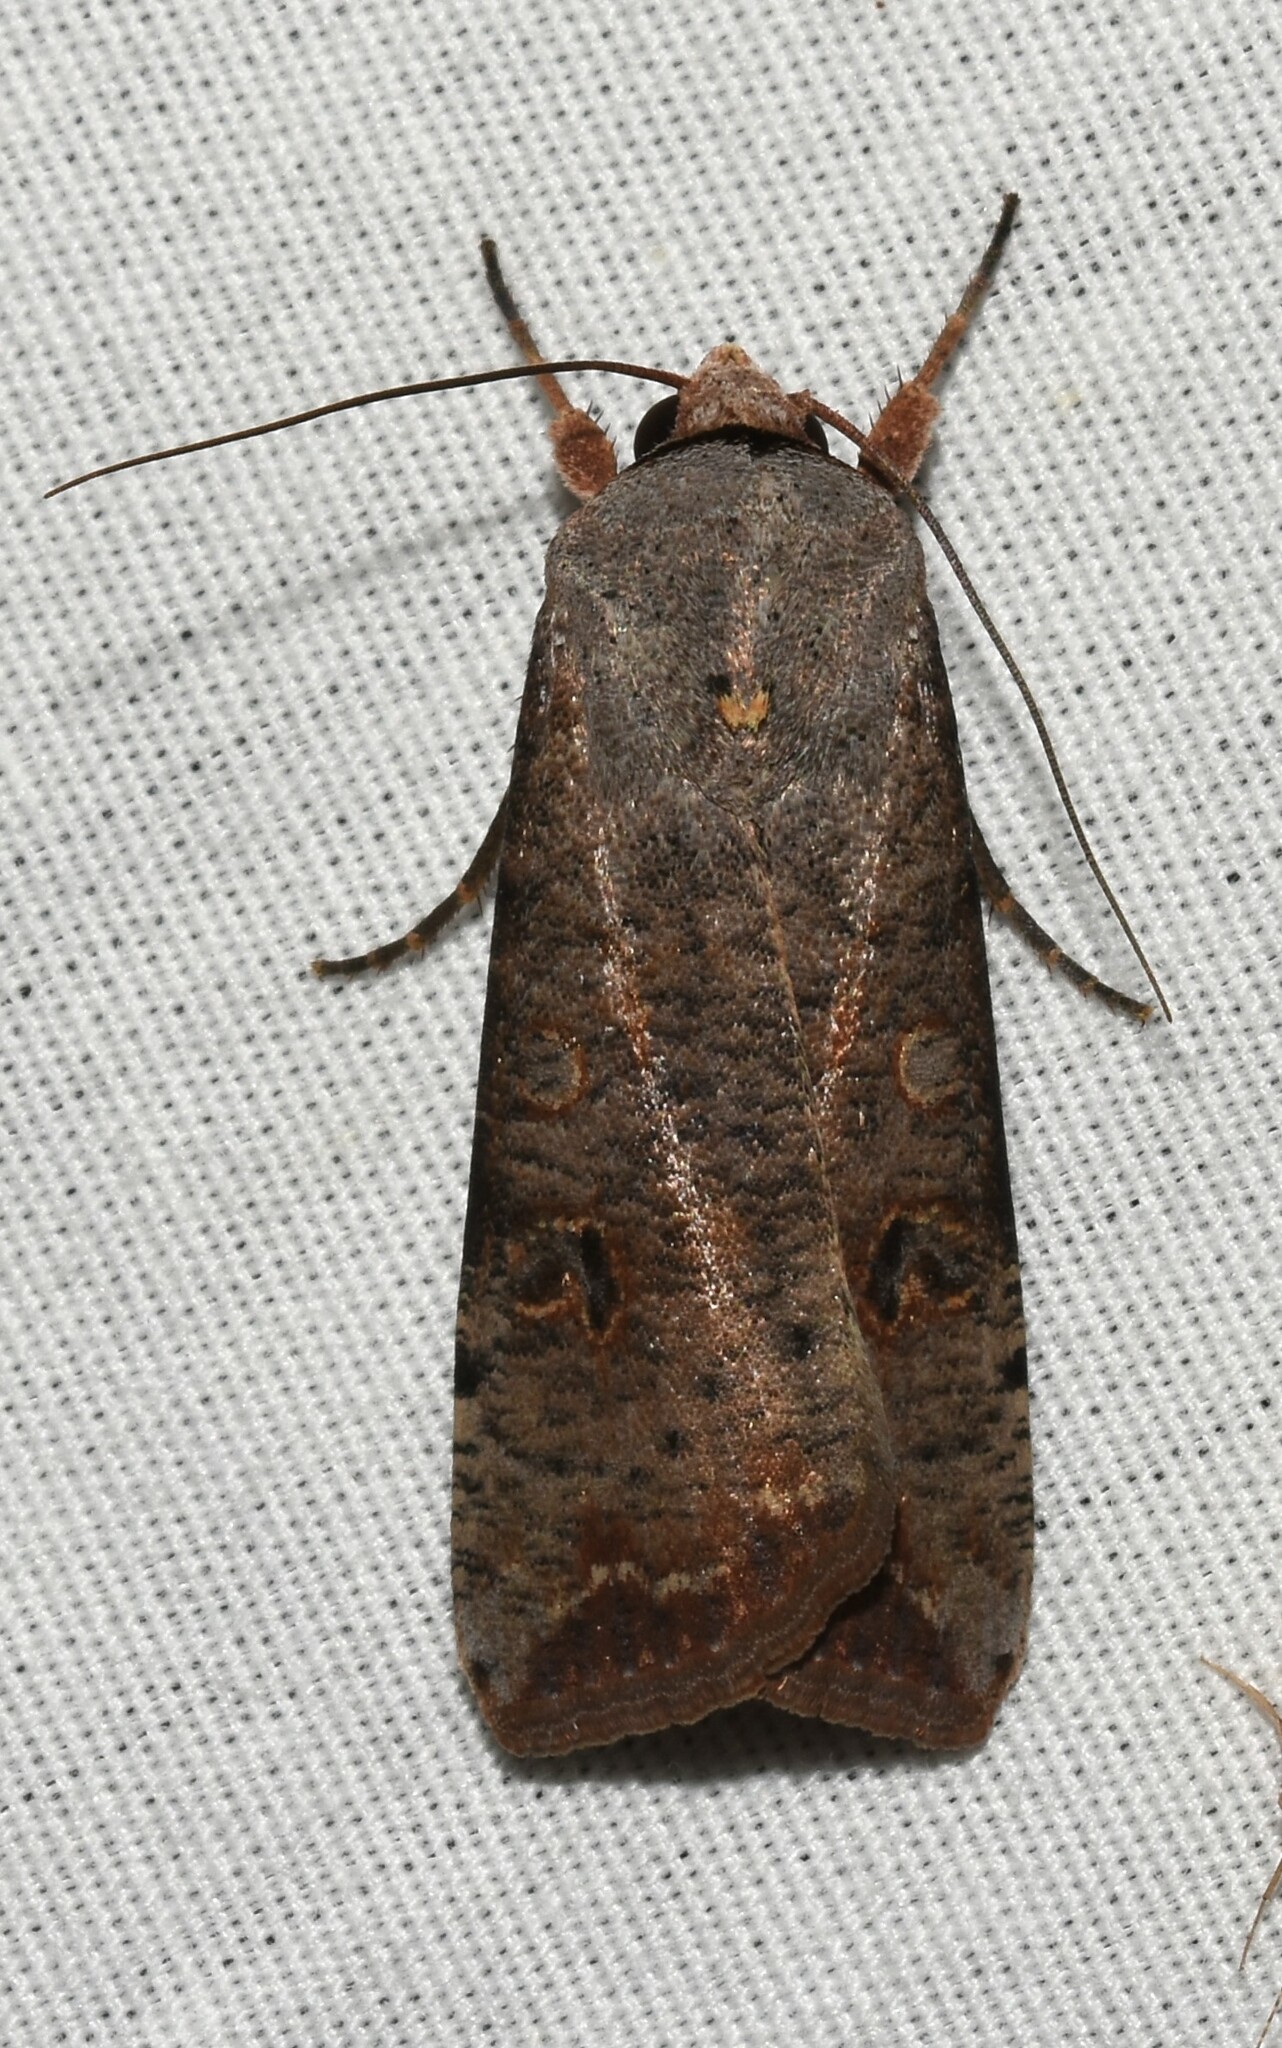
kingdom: Animalia
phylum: Arthropoda
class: Insecta
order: Lepidoptera
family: Noctuidae
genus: Anicla
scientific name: Anicla infecta
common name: Green cutworm
